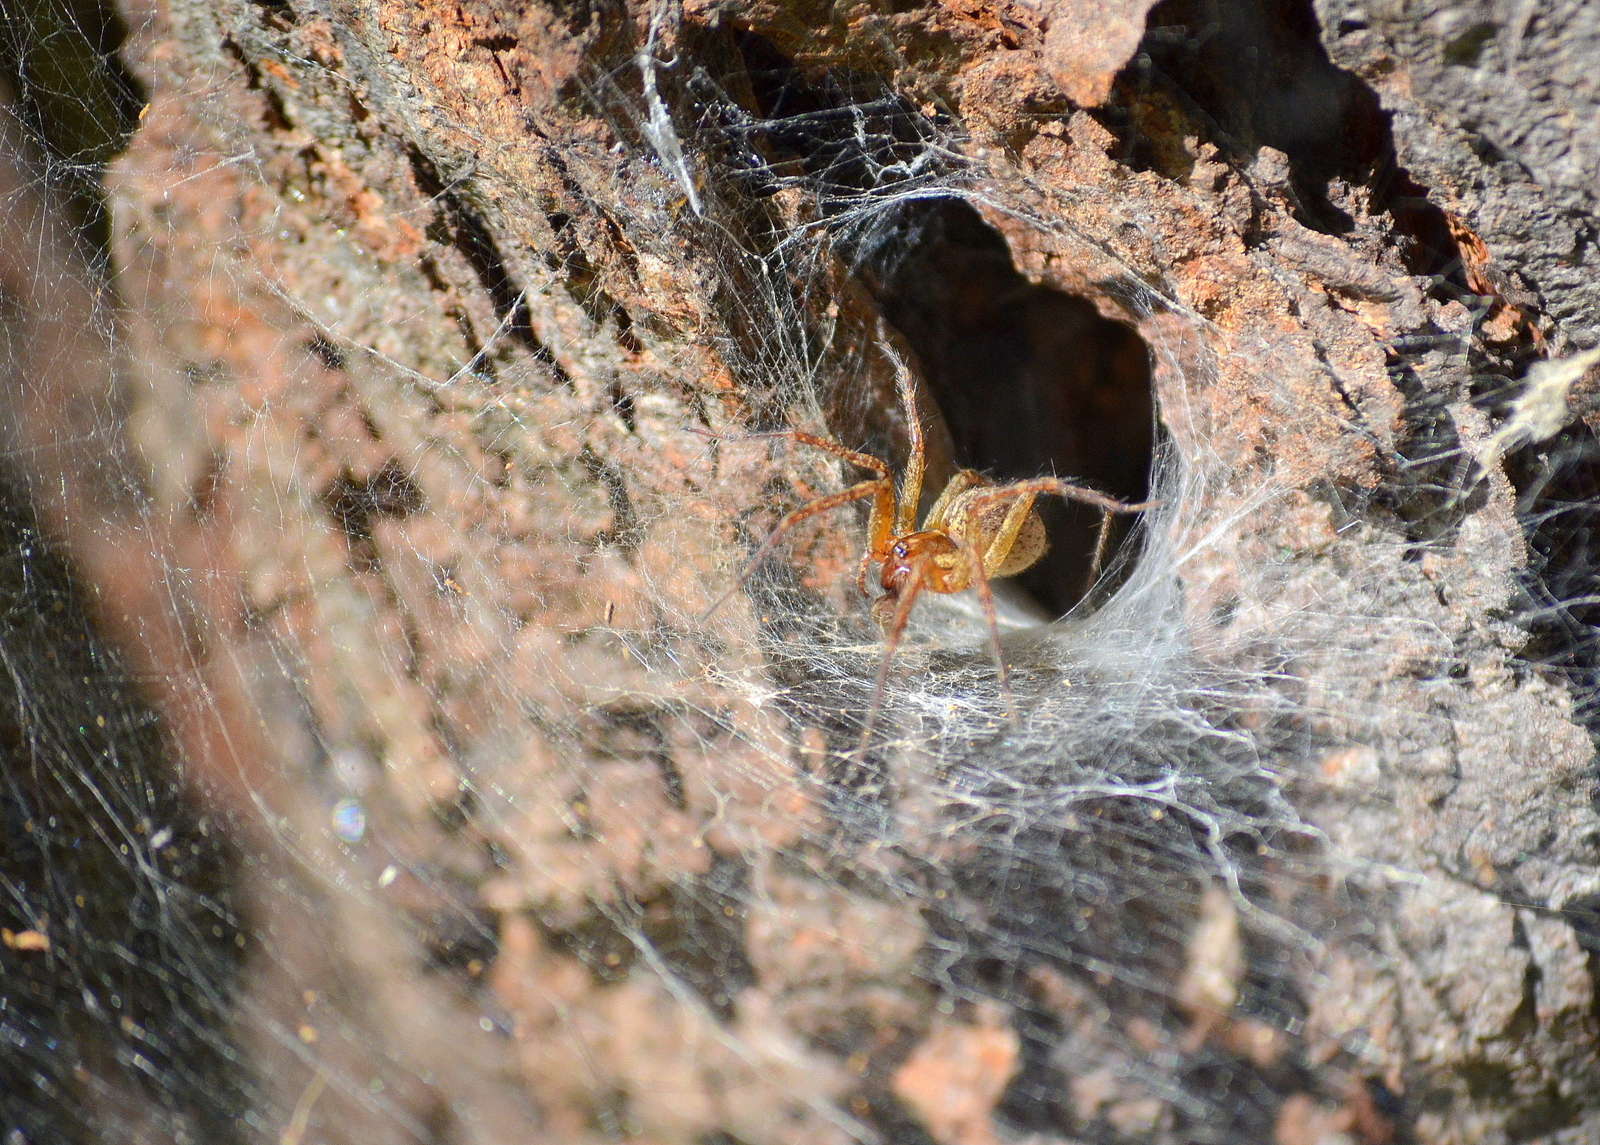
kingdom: Animalia
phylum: Arthropoda
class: Arachnida
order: Araneae
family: Agelenidae
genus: Agelenopsis
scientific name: Agelenopsis
